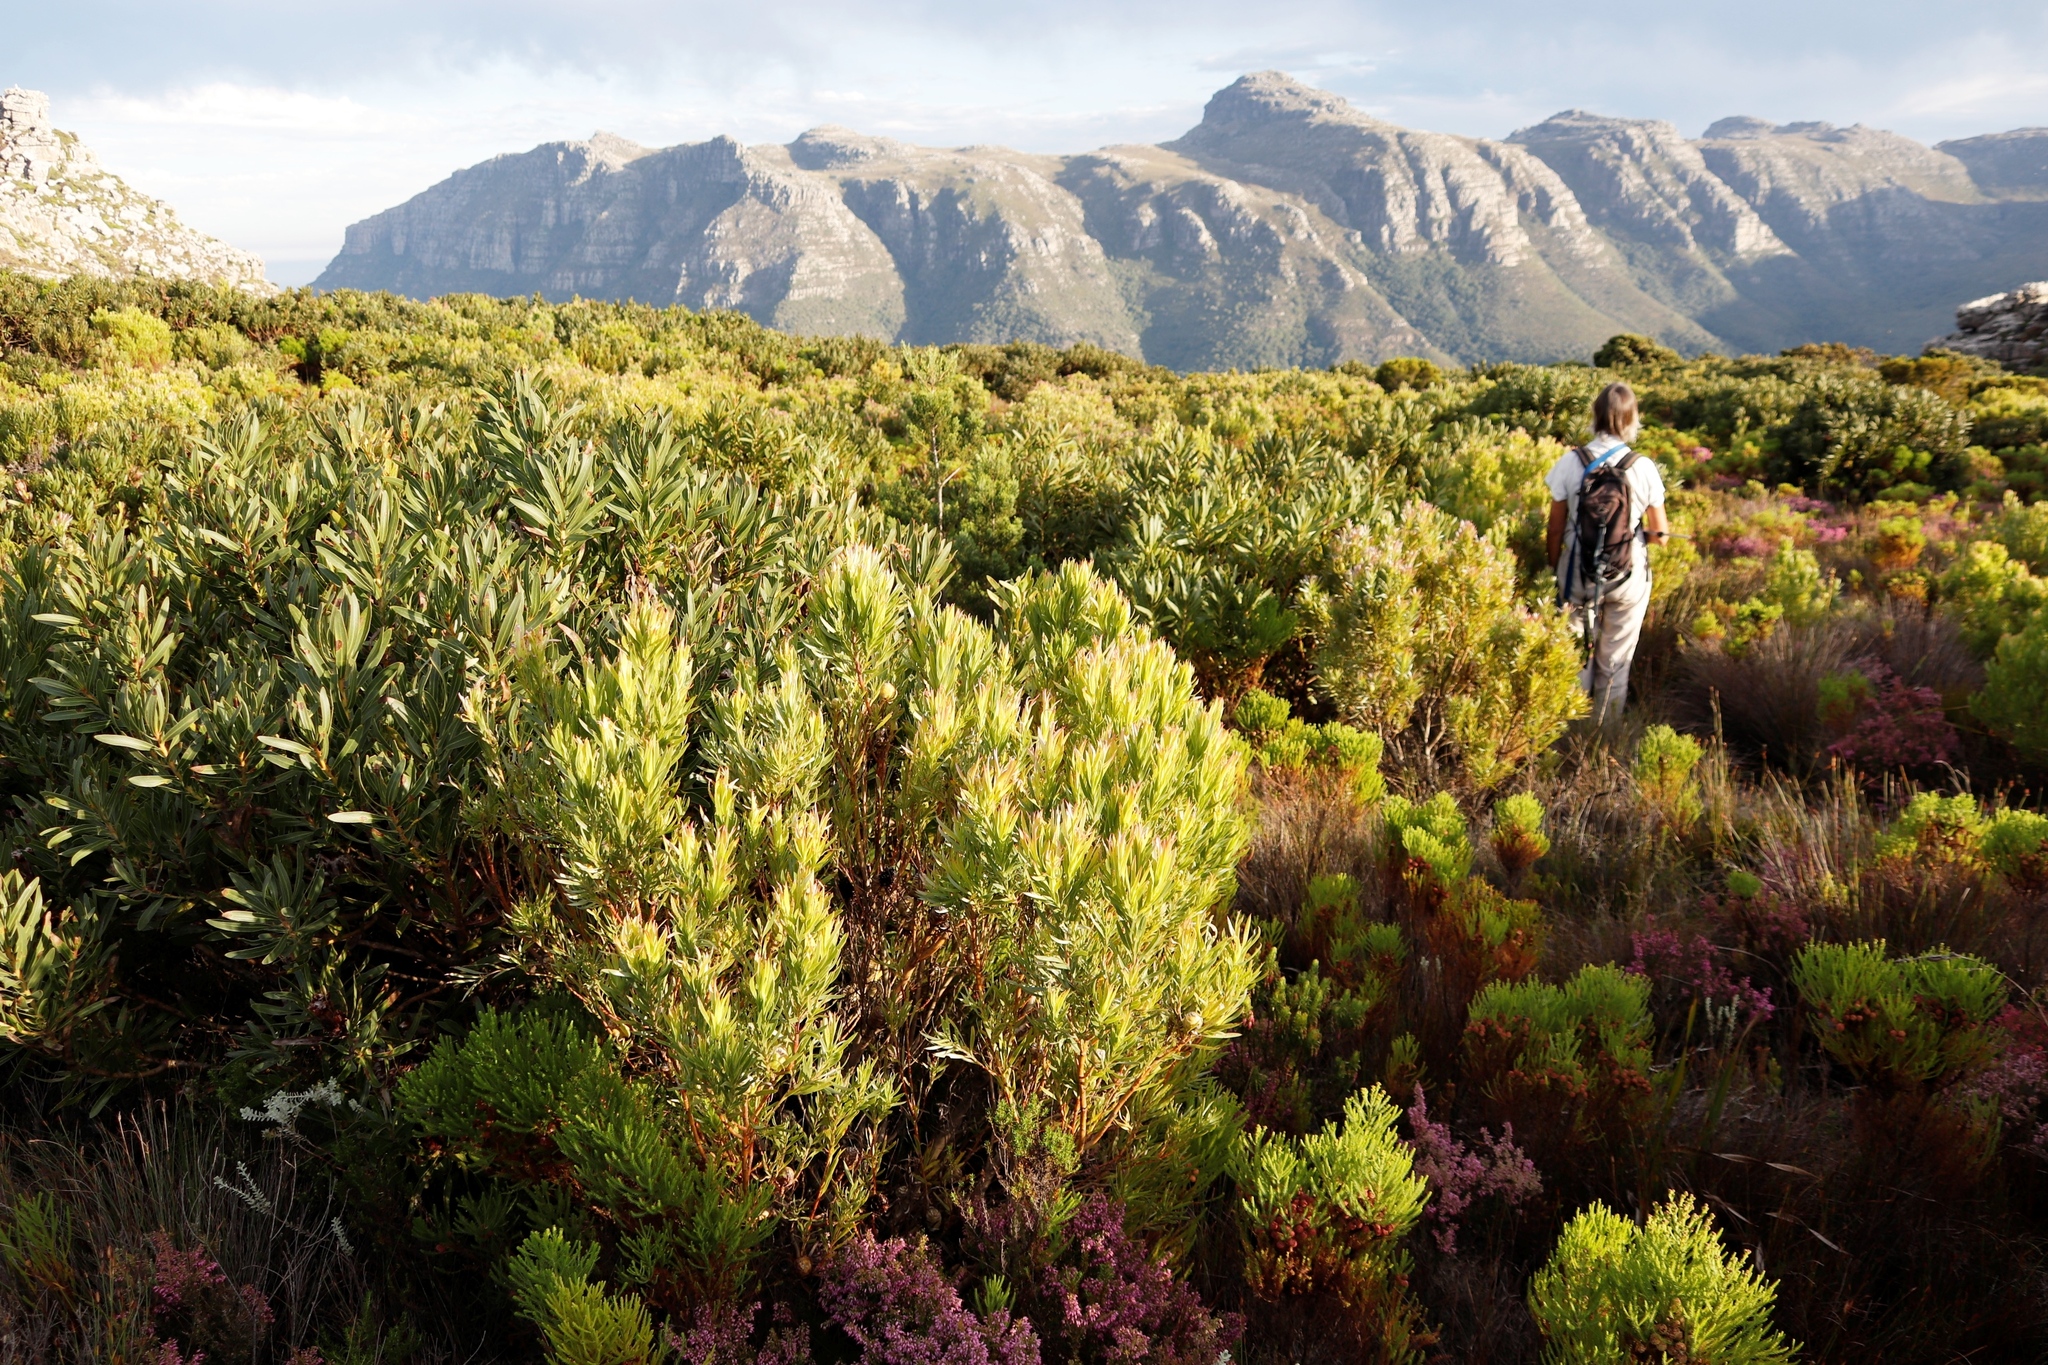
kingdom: Plantae
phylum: Tracheophyta
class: Magnoliopsida
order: Proteales
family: Proteaceae
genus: Protea
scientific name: Protea lepidocarpodendron
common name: Black-bearded protea
